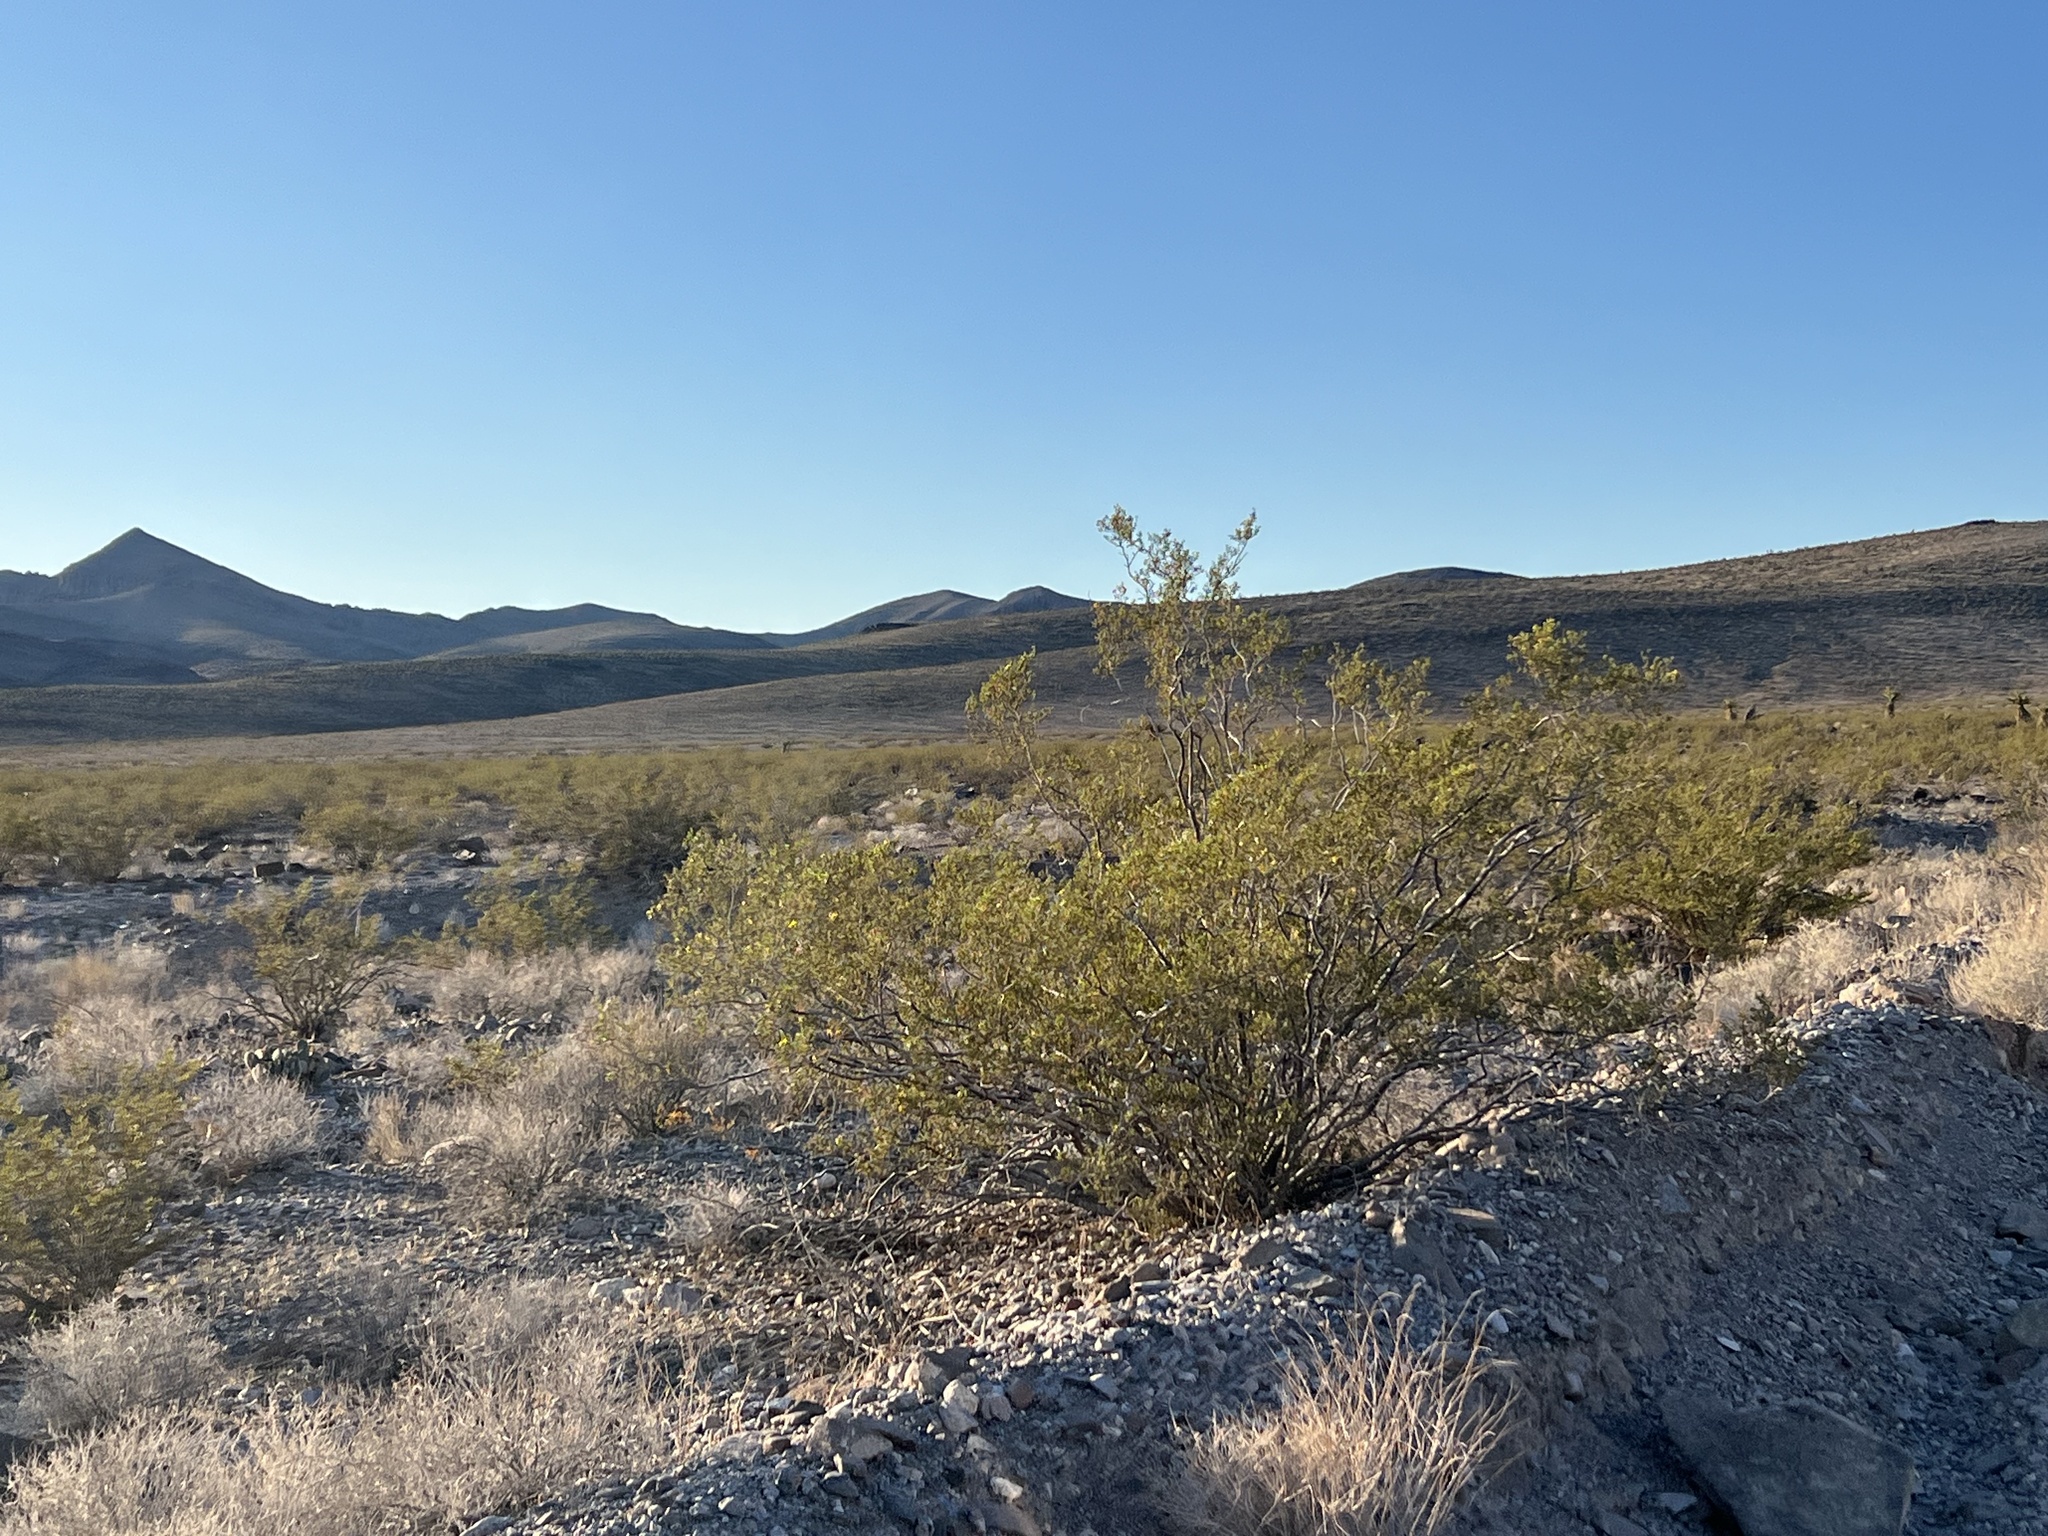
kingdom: Plantae
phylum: Tracheophyta
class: Magnoliopsida
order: Zygophyllales
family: Zygophyllaceae
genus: Larrea
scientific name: Larrea tridentata
